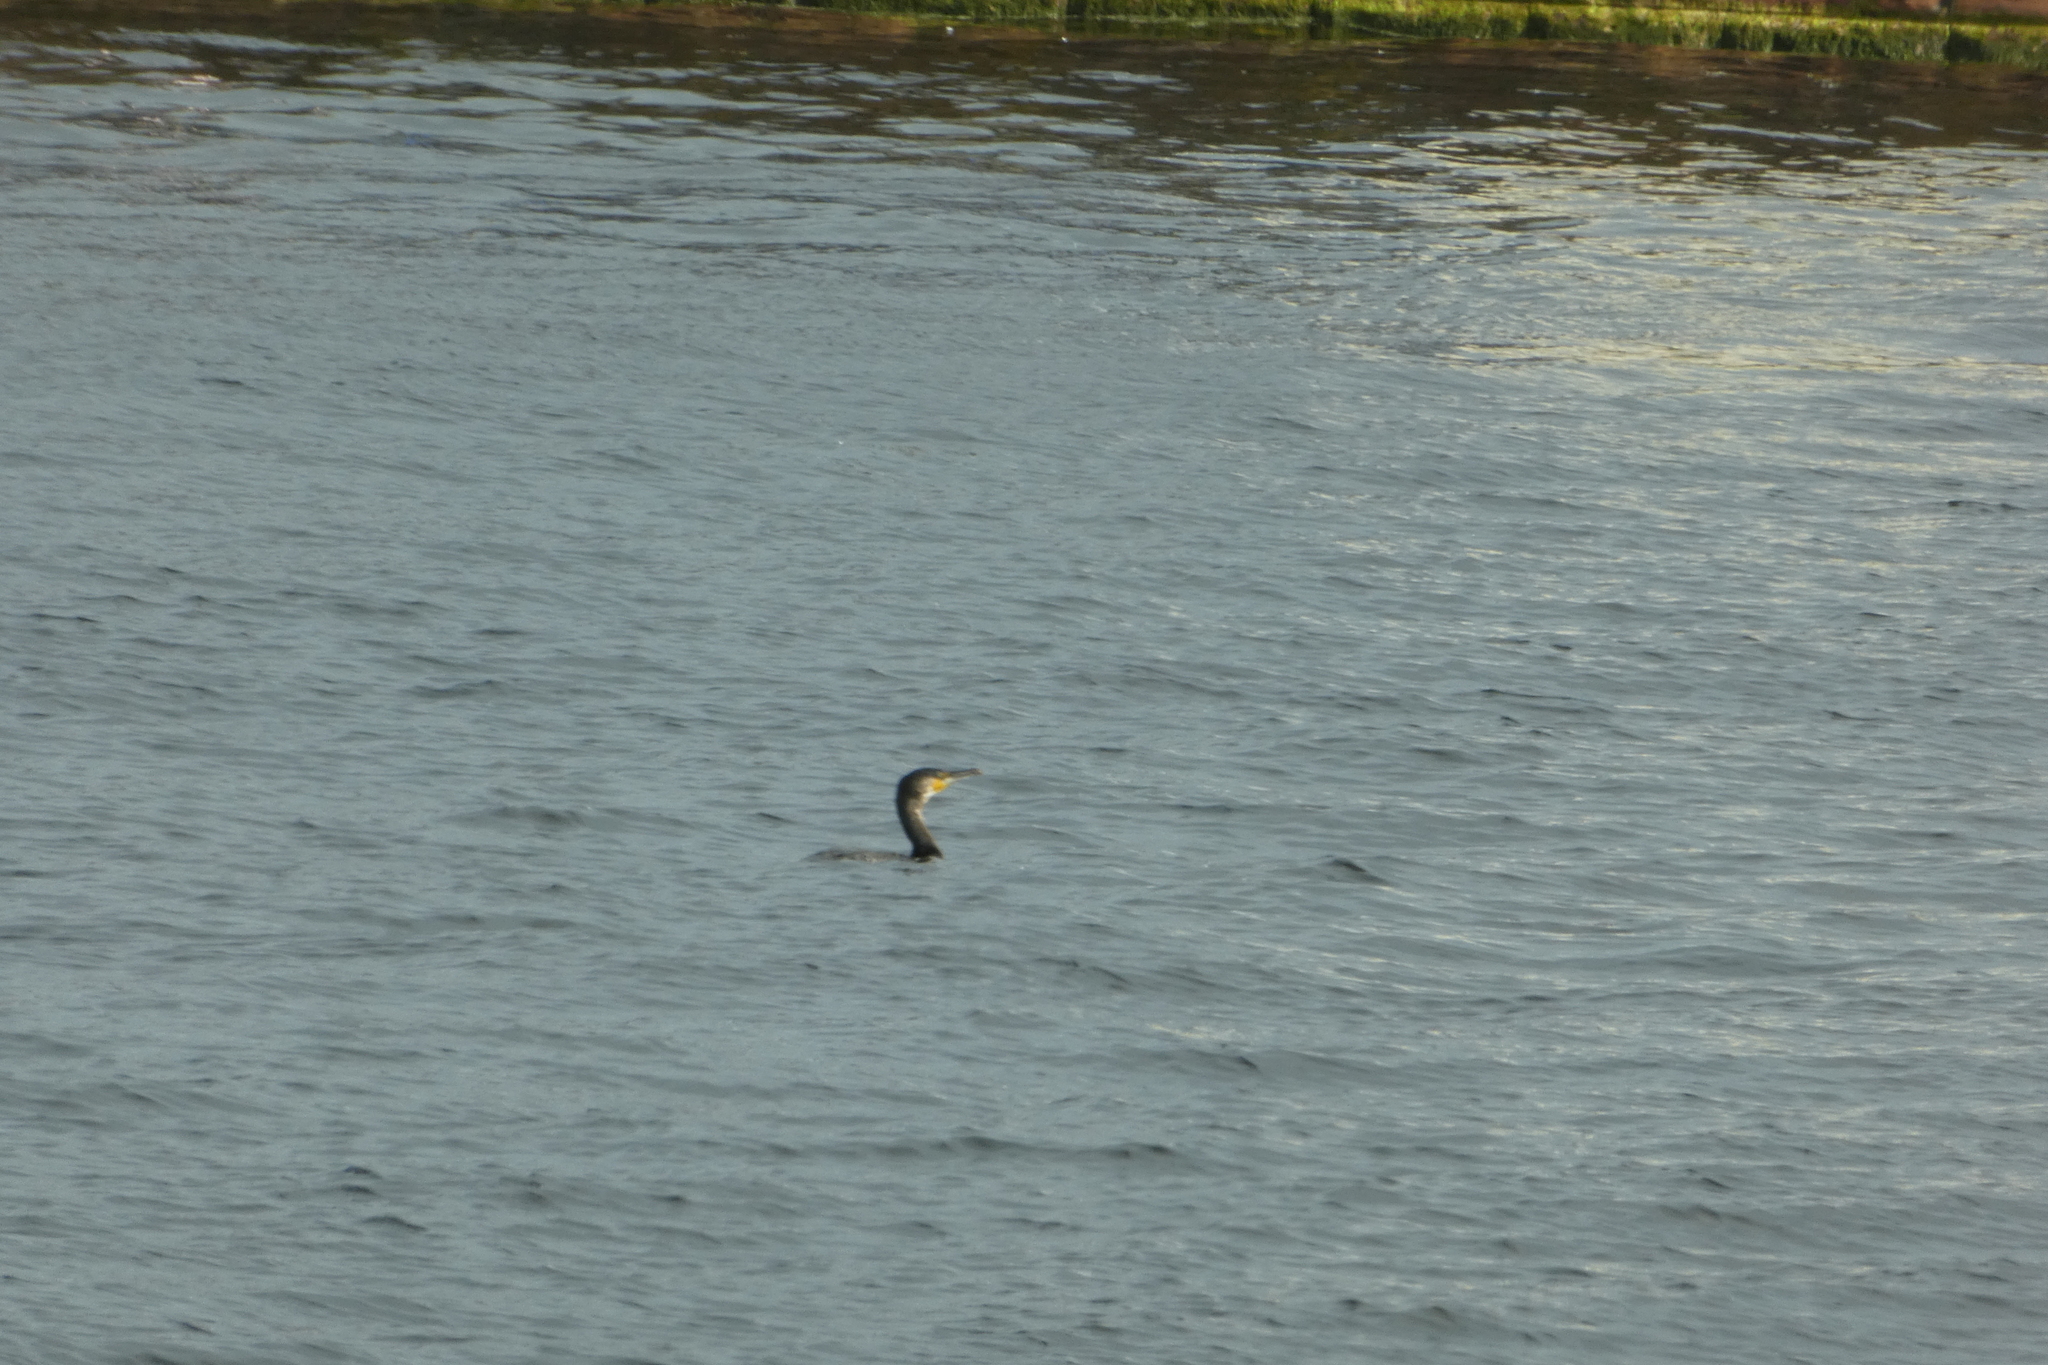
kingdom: Animalia
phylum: Chordata
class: Aves
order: Suliformes
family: Phalacrocoracidae
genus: Phalacrocorax
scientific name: Phalacrocorax carbo
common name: Great cormorant
